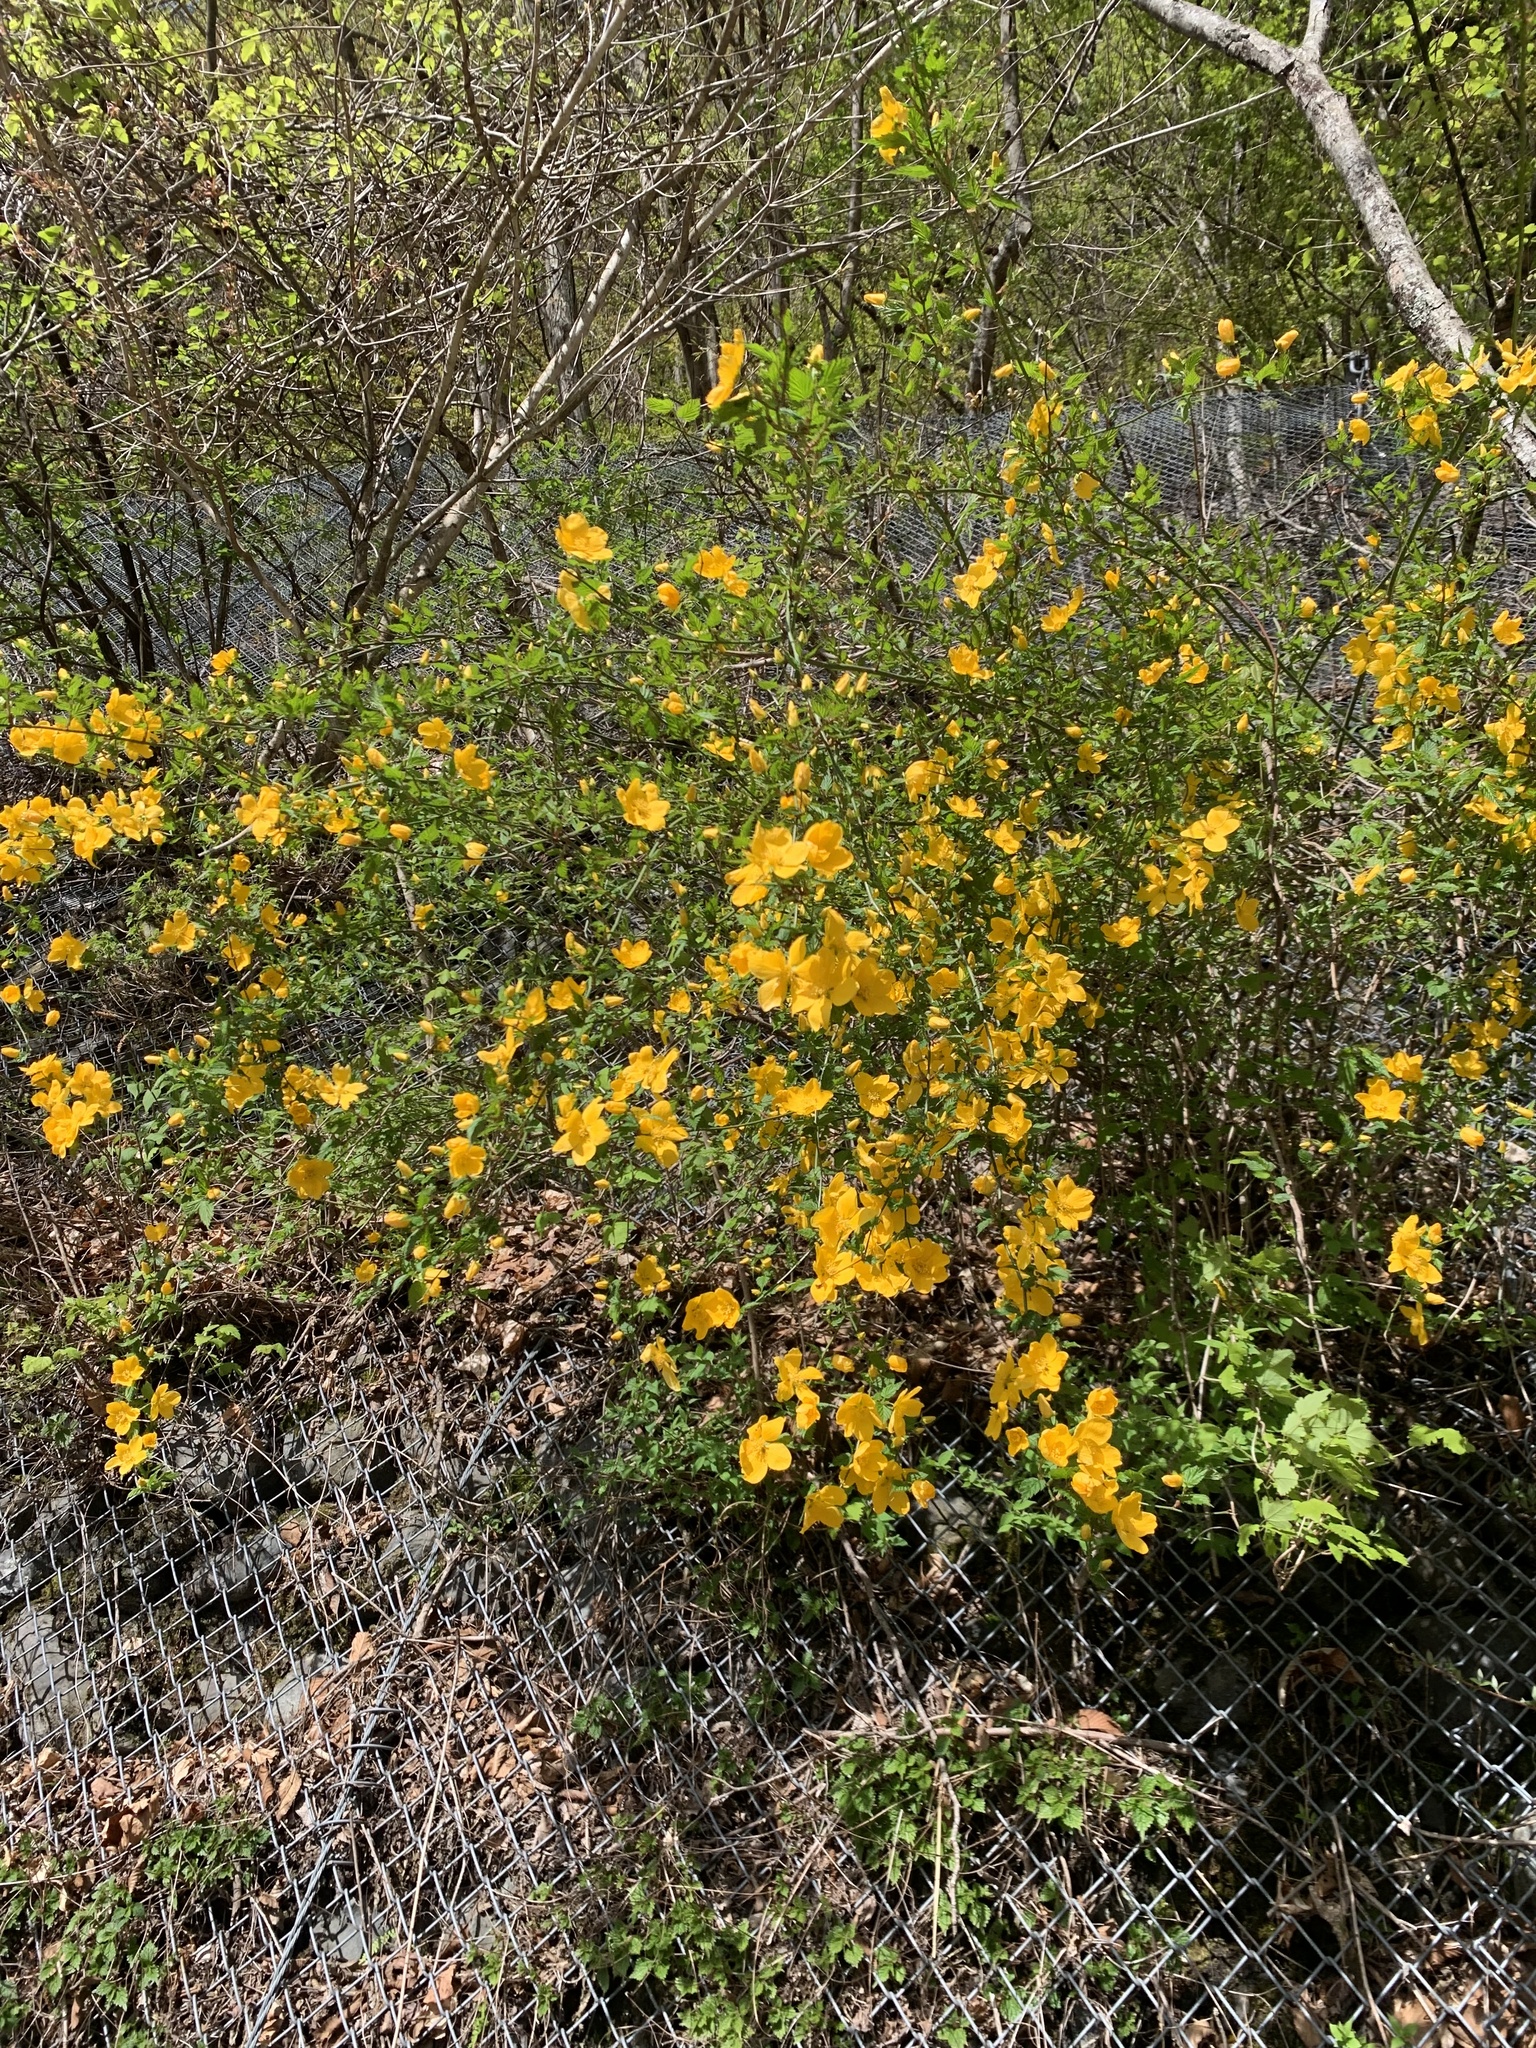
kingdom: Plantae
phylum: Tracheophyta
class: Magnoliopsida
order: Rosales
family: Rosaceae
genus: Kerria
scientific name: Kerria japonica
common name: Japanese kerria
